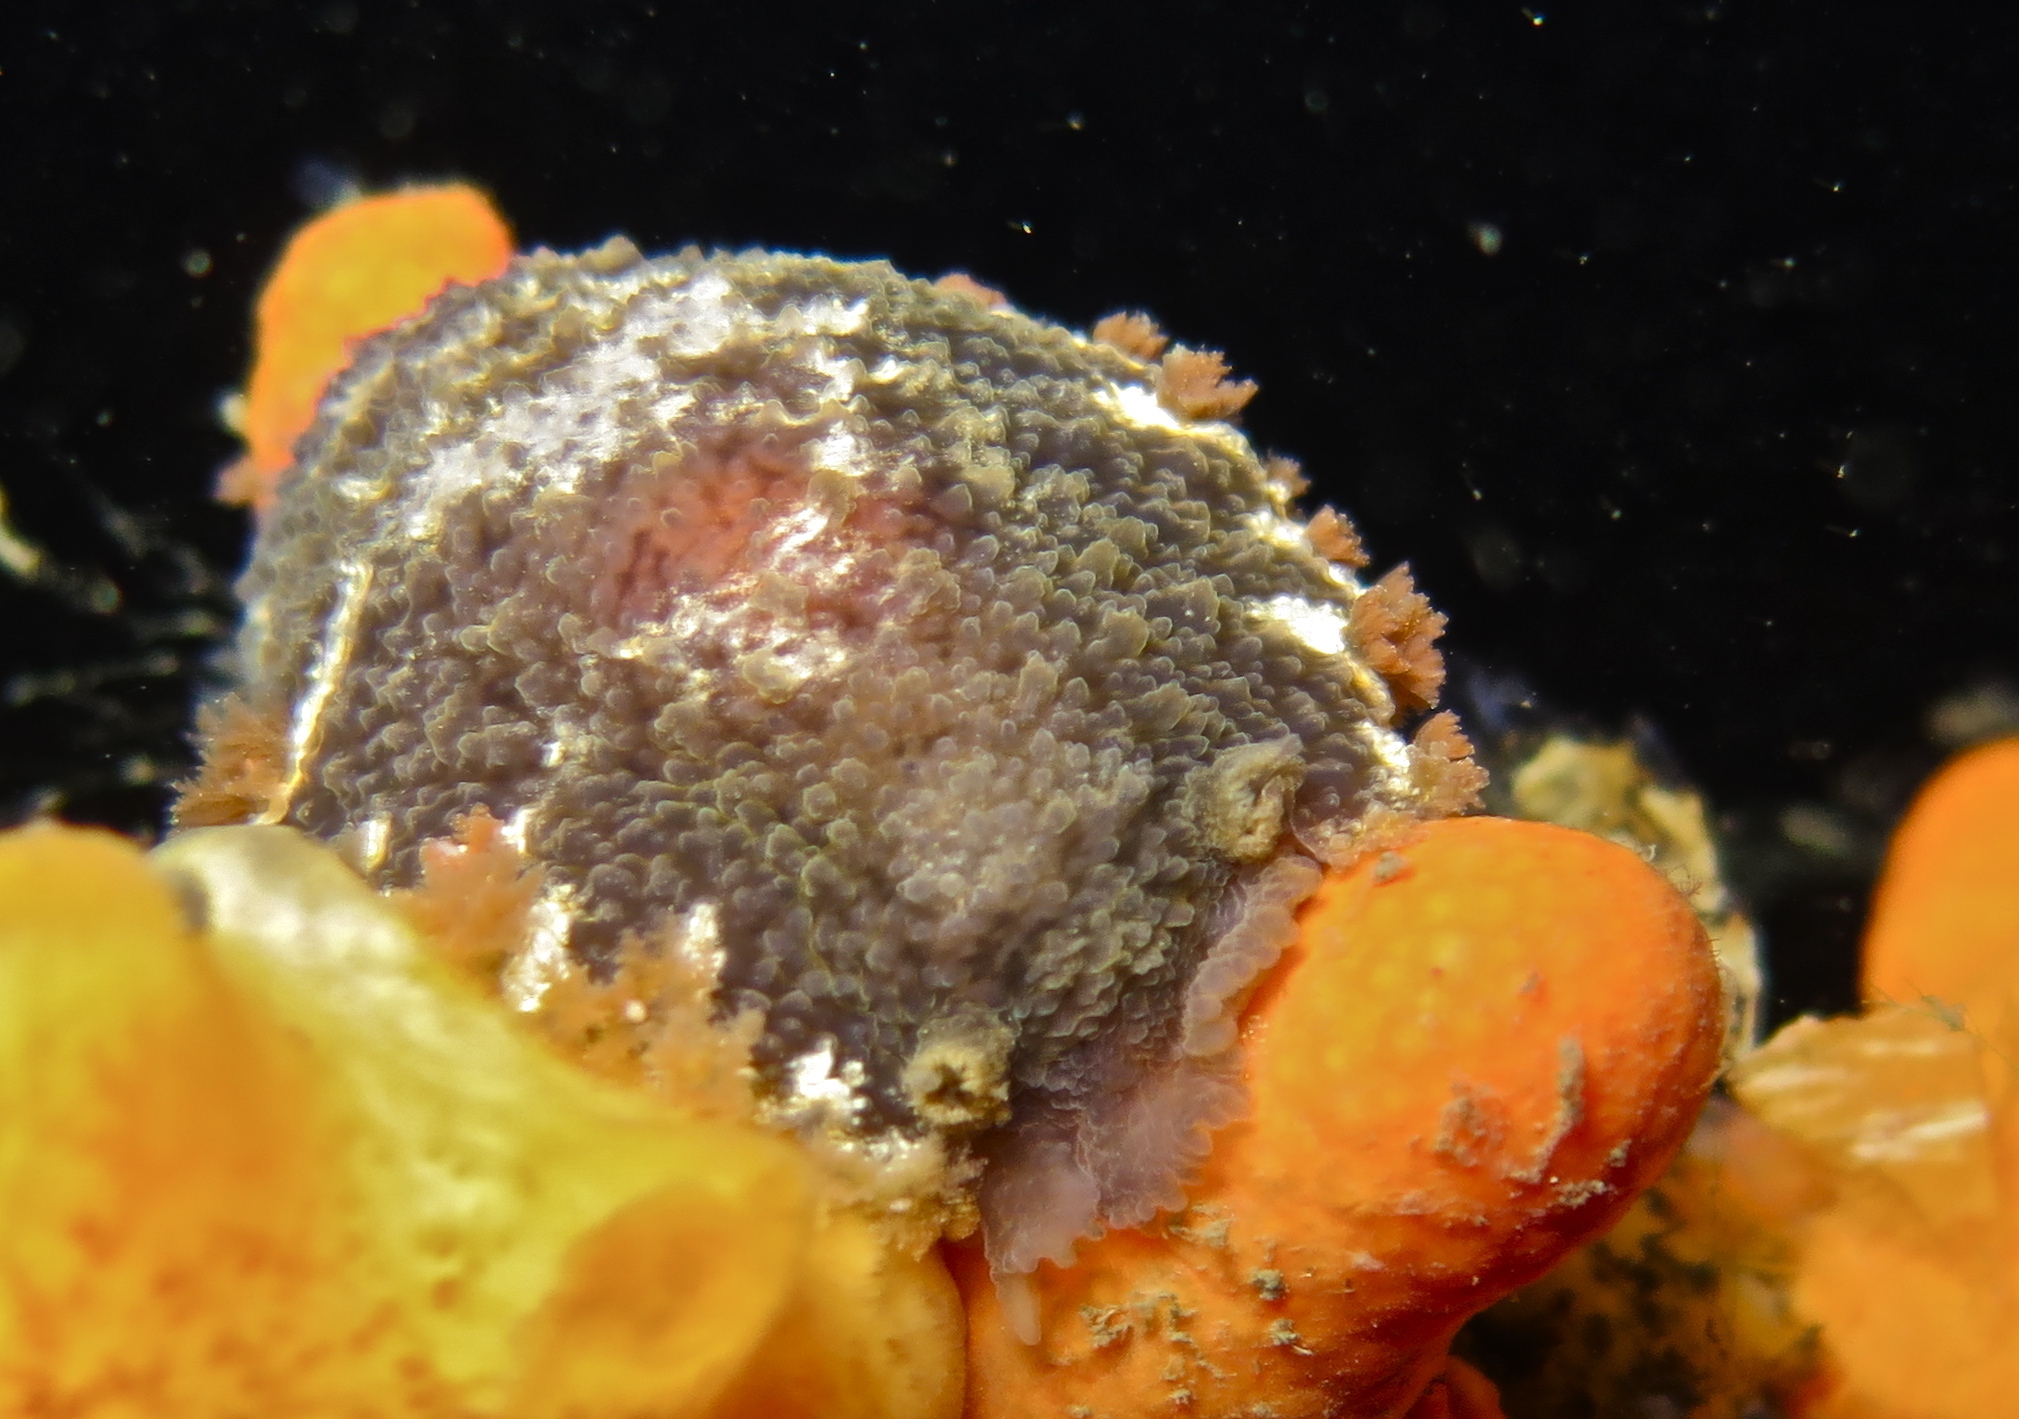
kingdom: Animalia
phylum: Mollusca
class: Gastropoda
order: Nudibranchia
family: Tritoniidae
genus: Tritonia
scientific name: Tritonia hombergii
